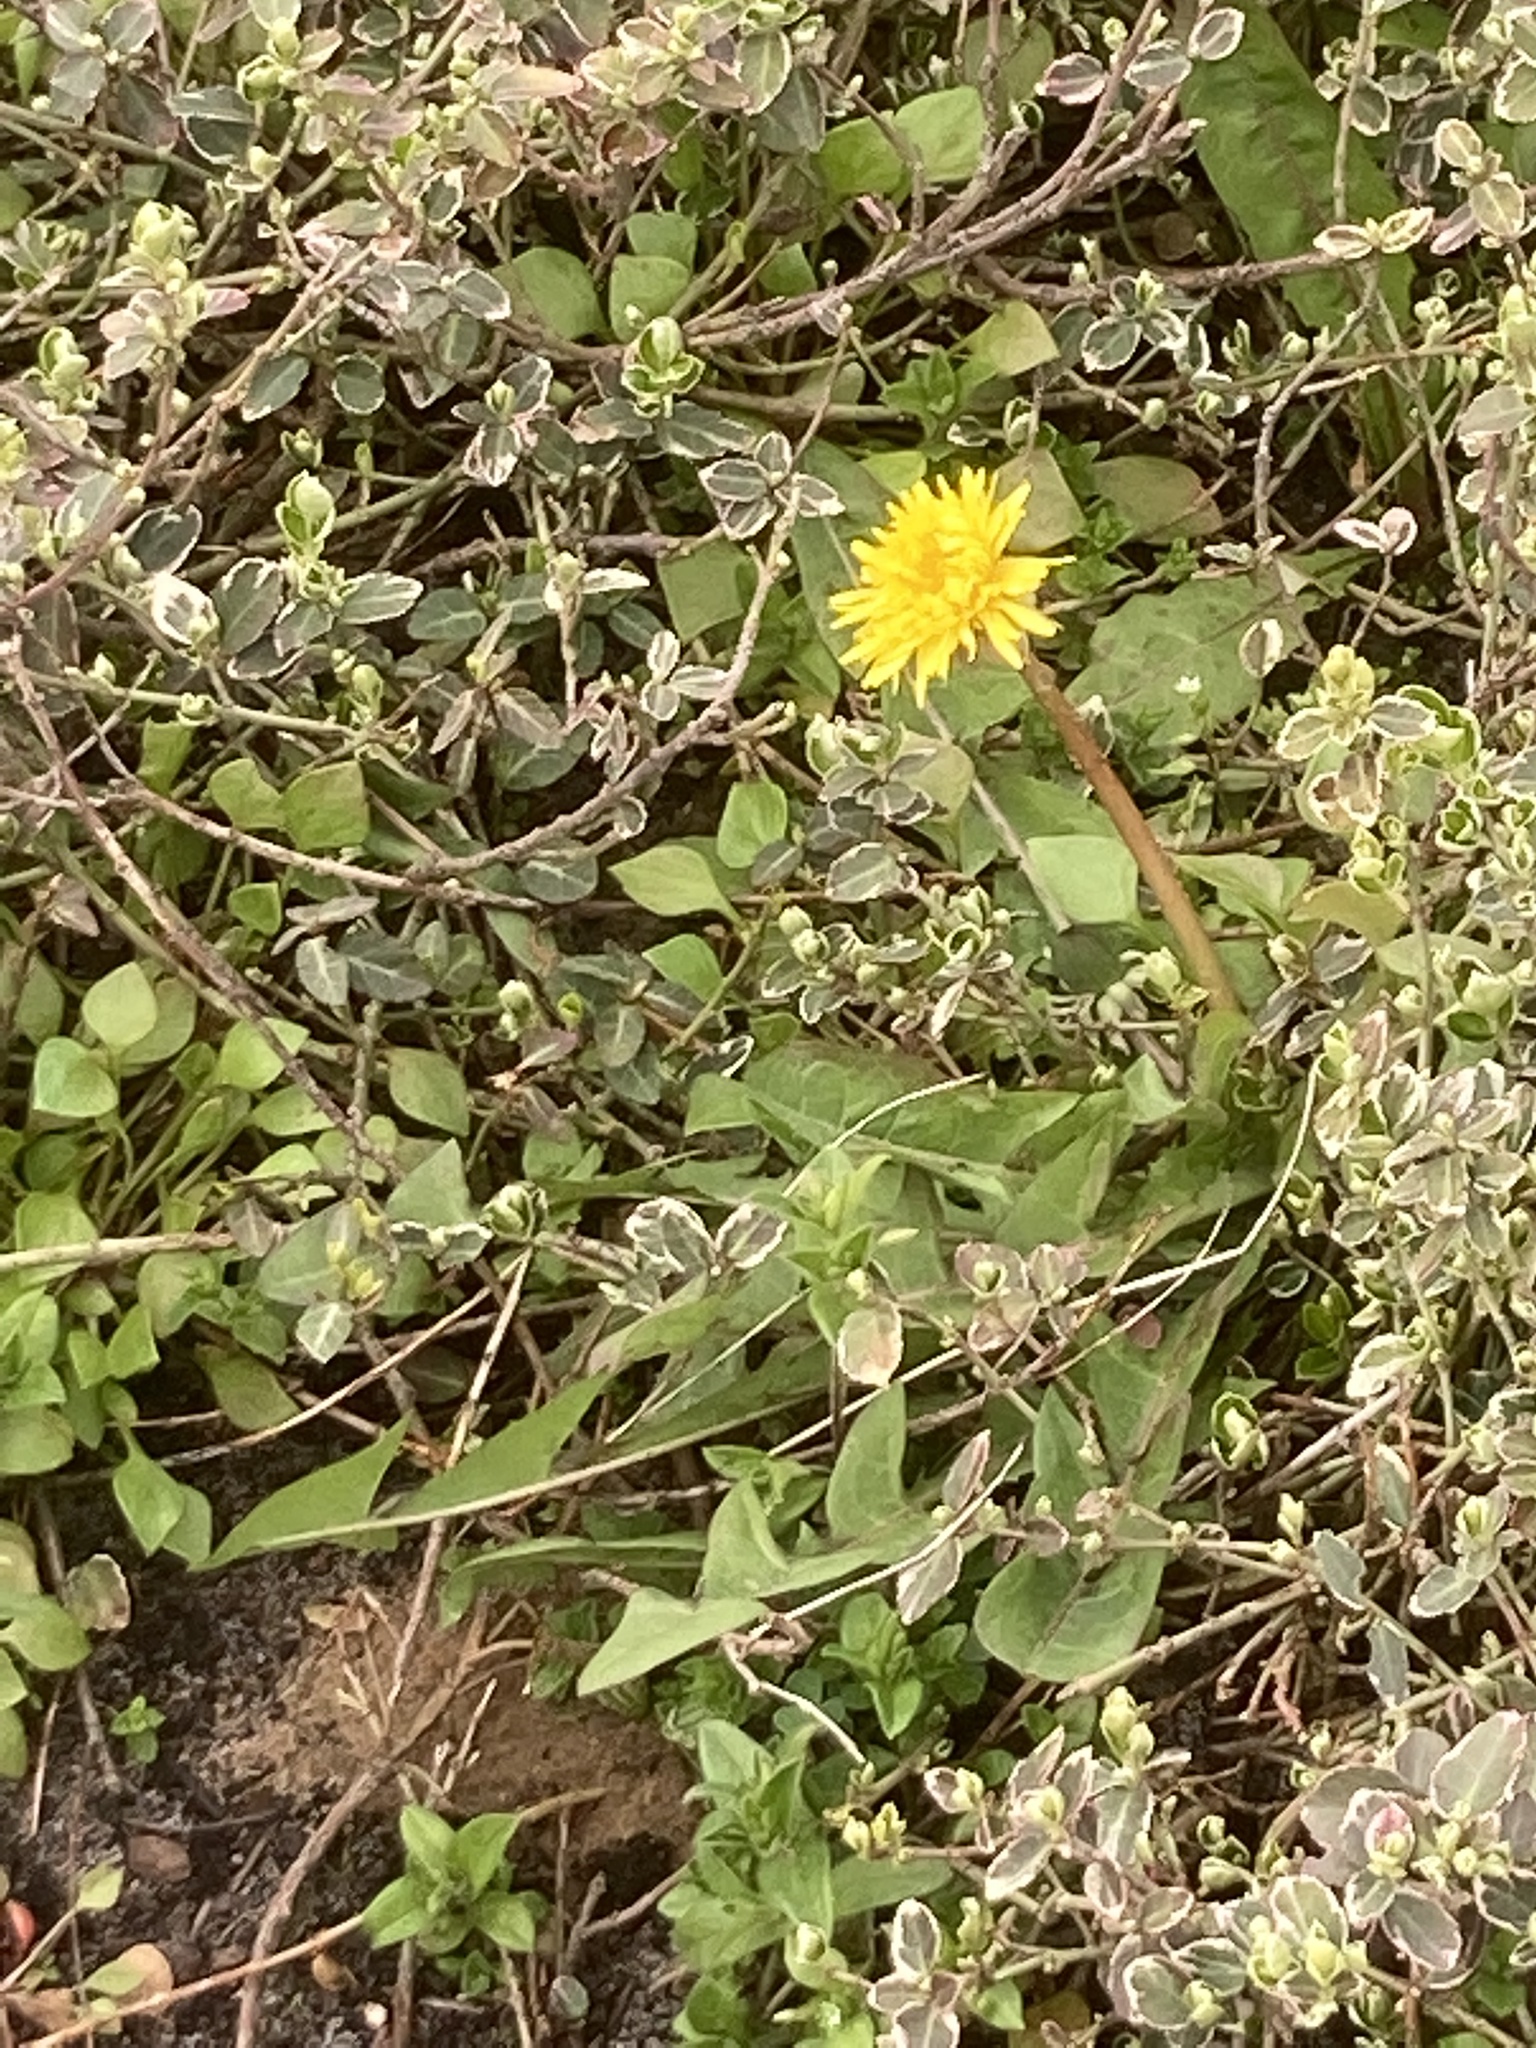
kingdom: Plantae
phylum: Tracheophyta
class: Magnoliopsida
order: Asterales
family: Asteraceae
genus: Taraxacum
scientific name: Taraxacum officinale
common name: Common dandelion
